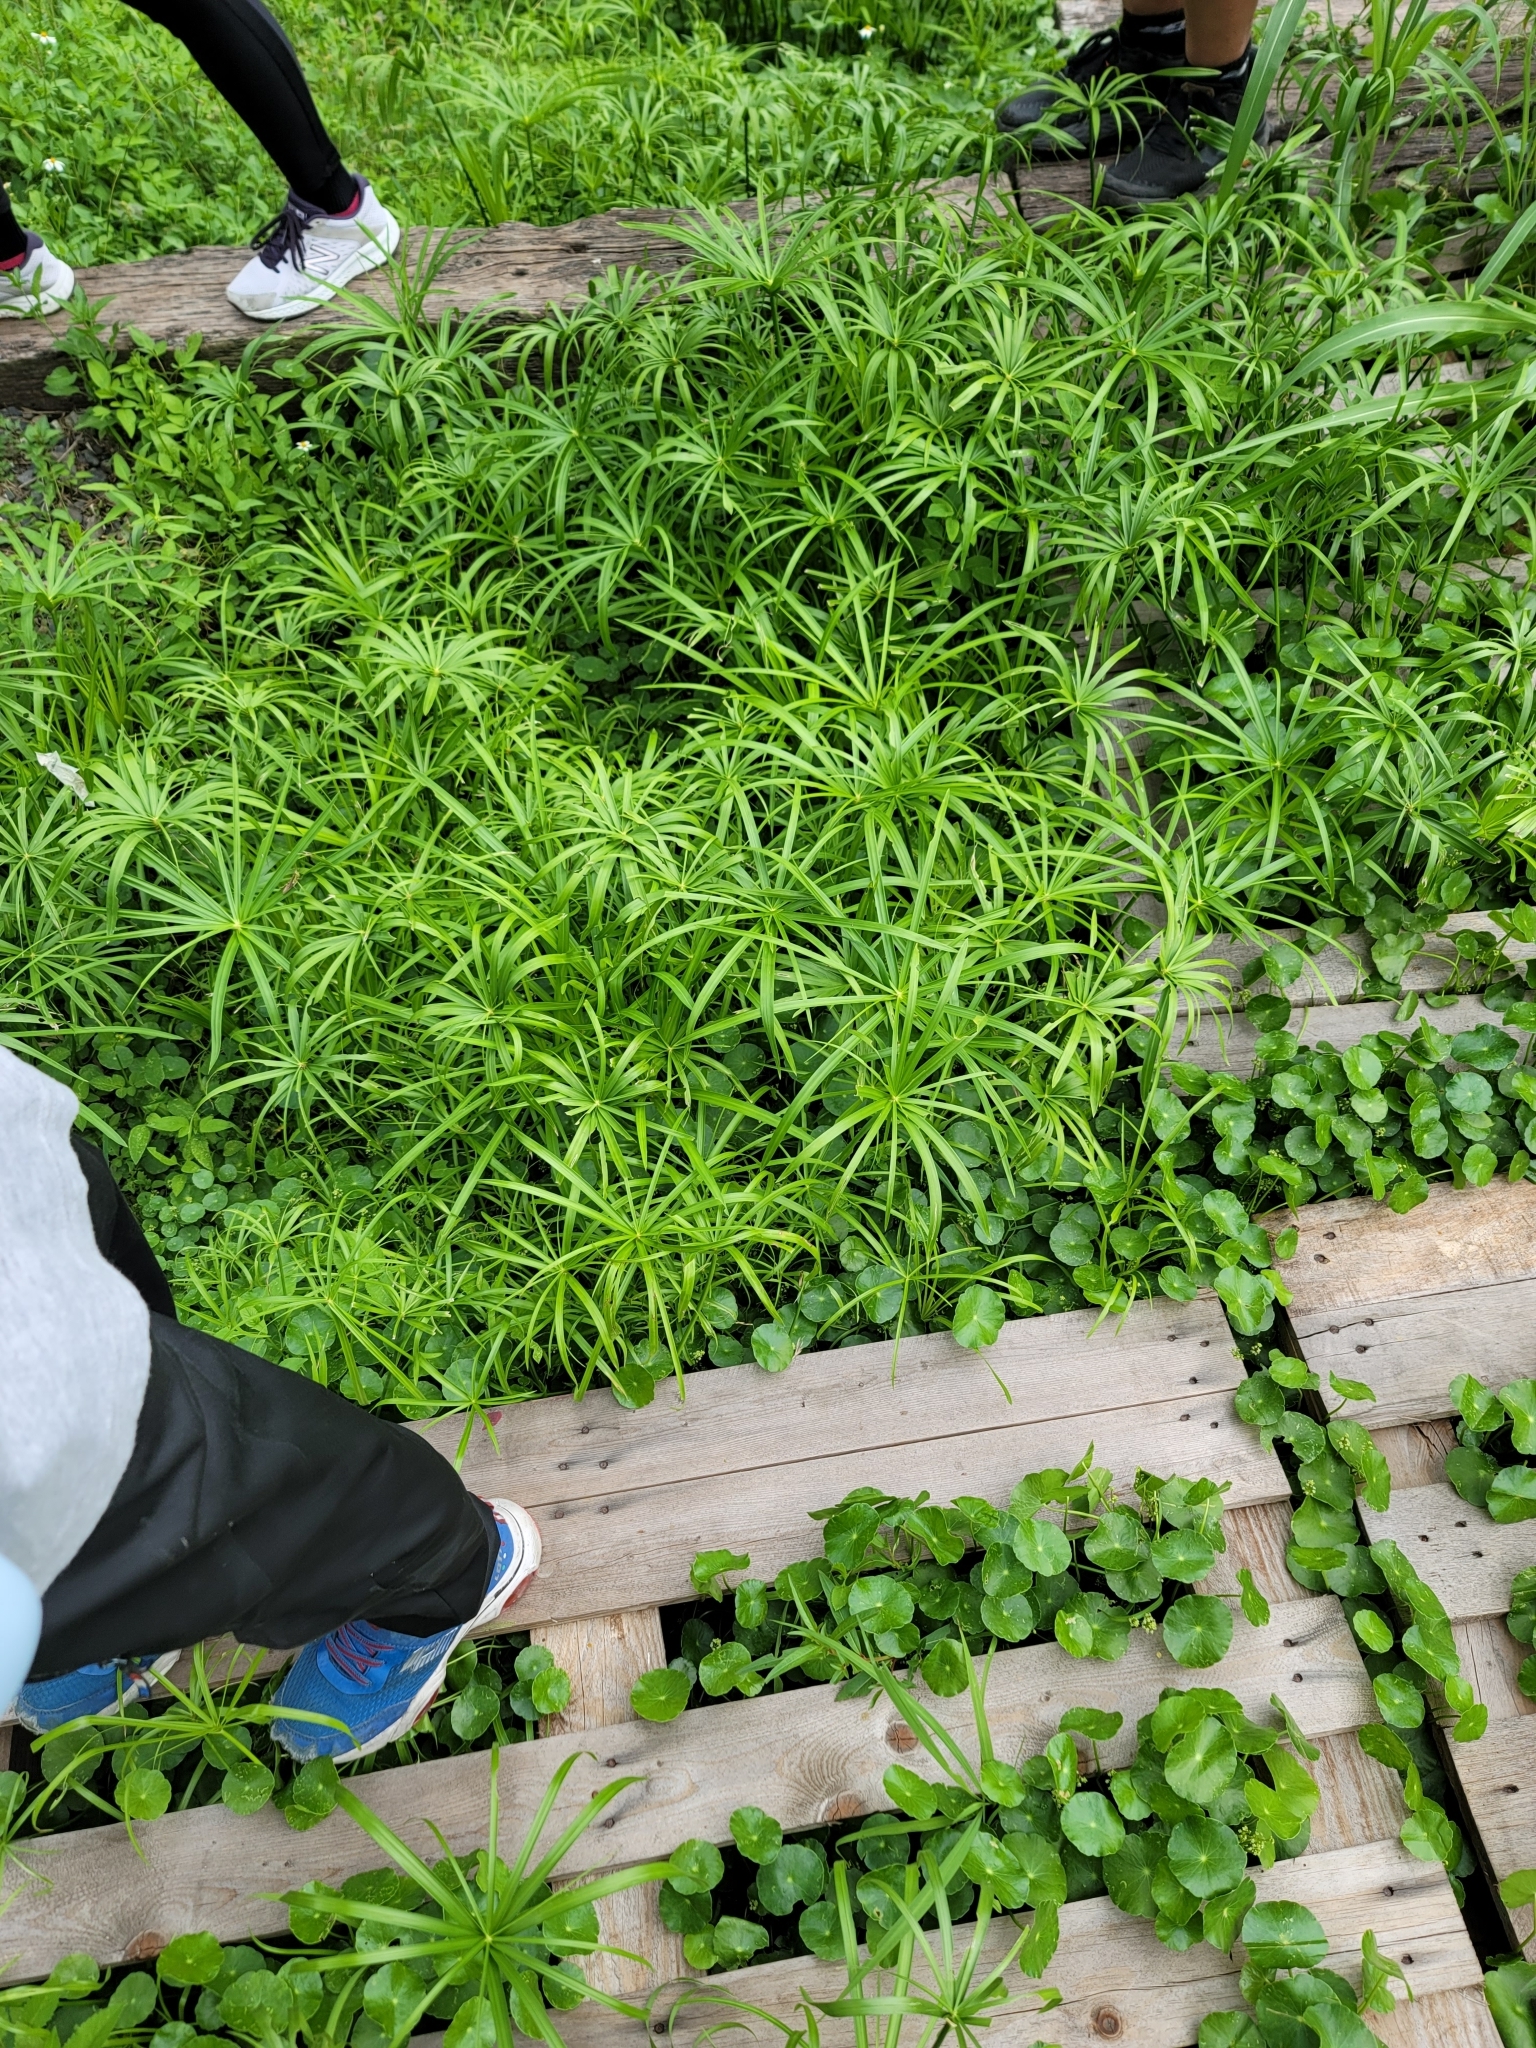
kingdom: Plantae
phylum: Tracheophyta
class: Liliopsida
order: Poales
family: Cyperaceae
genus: Cyperus
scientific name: Cyperus alternifolius
